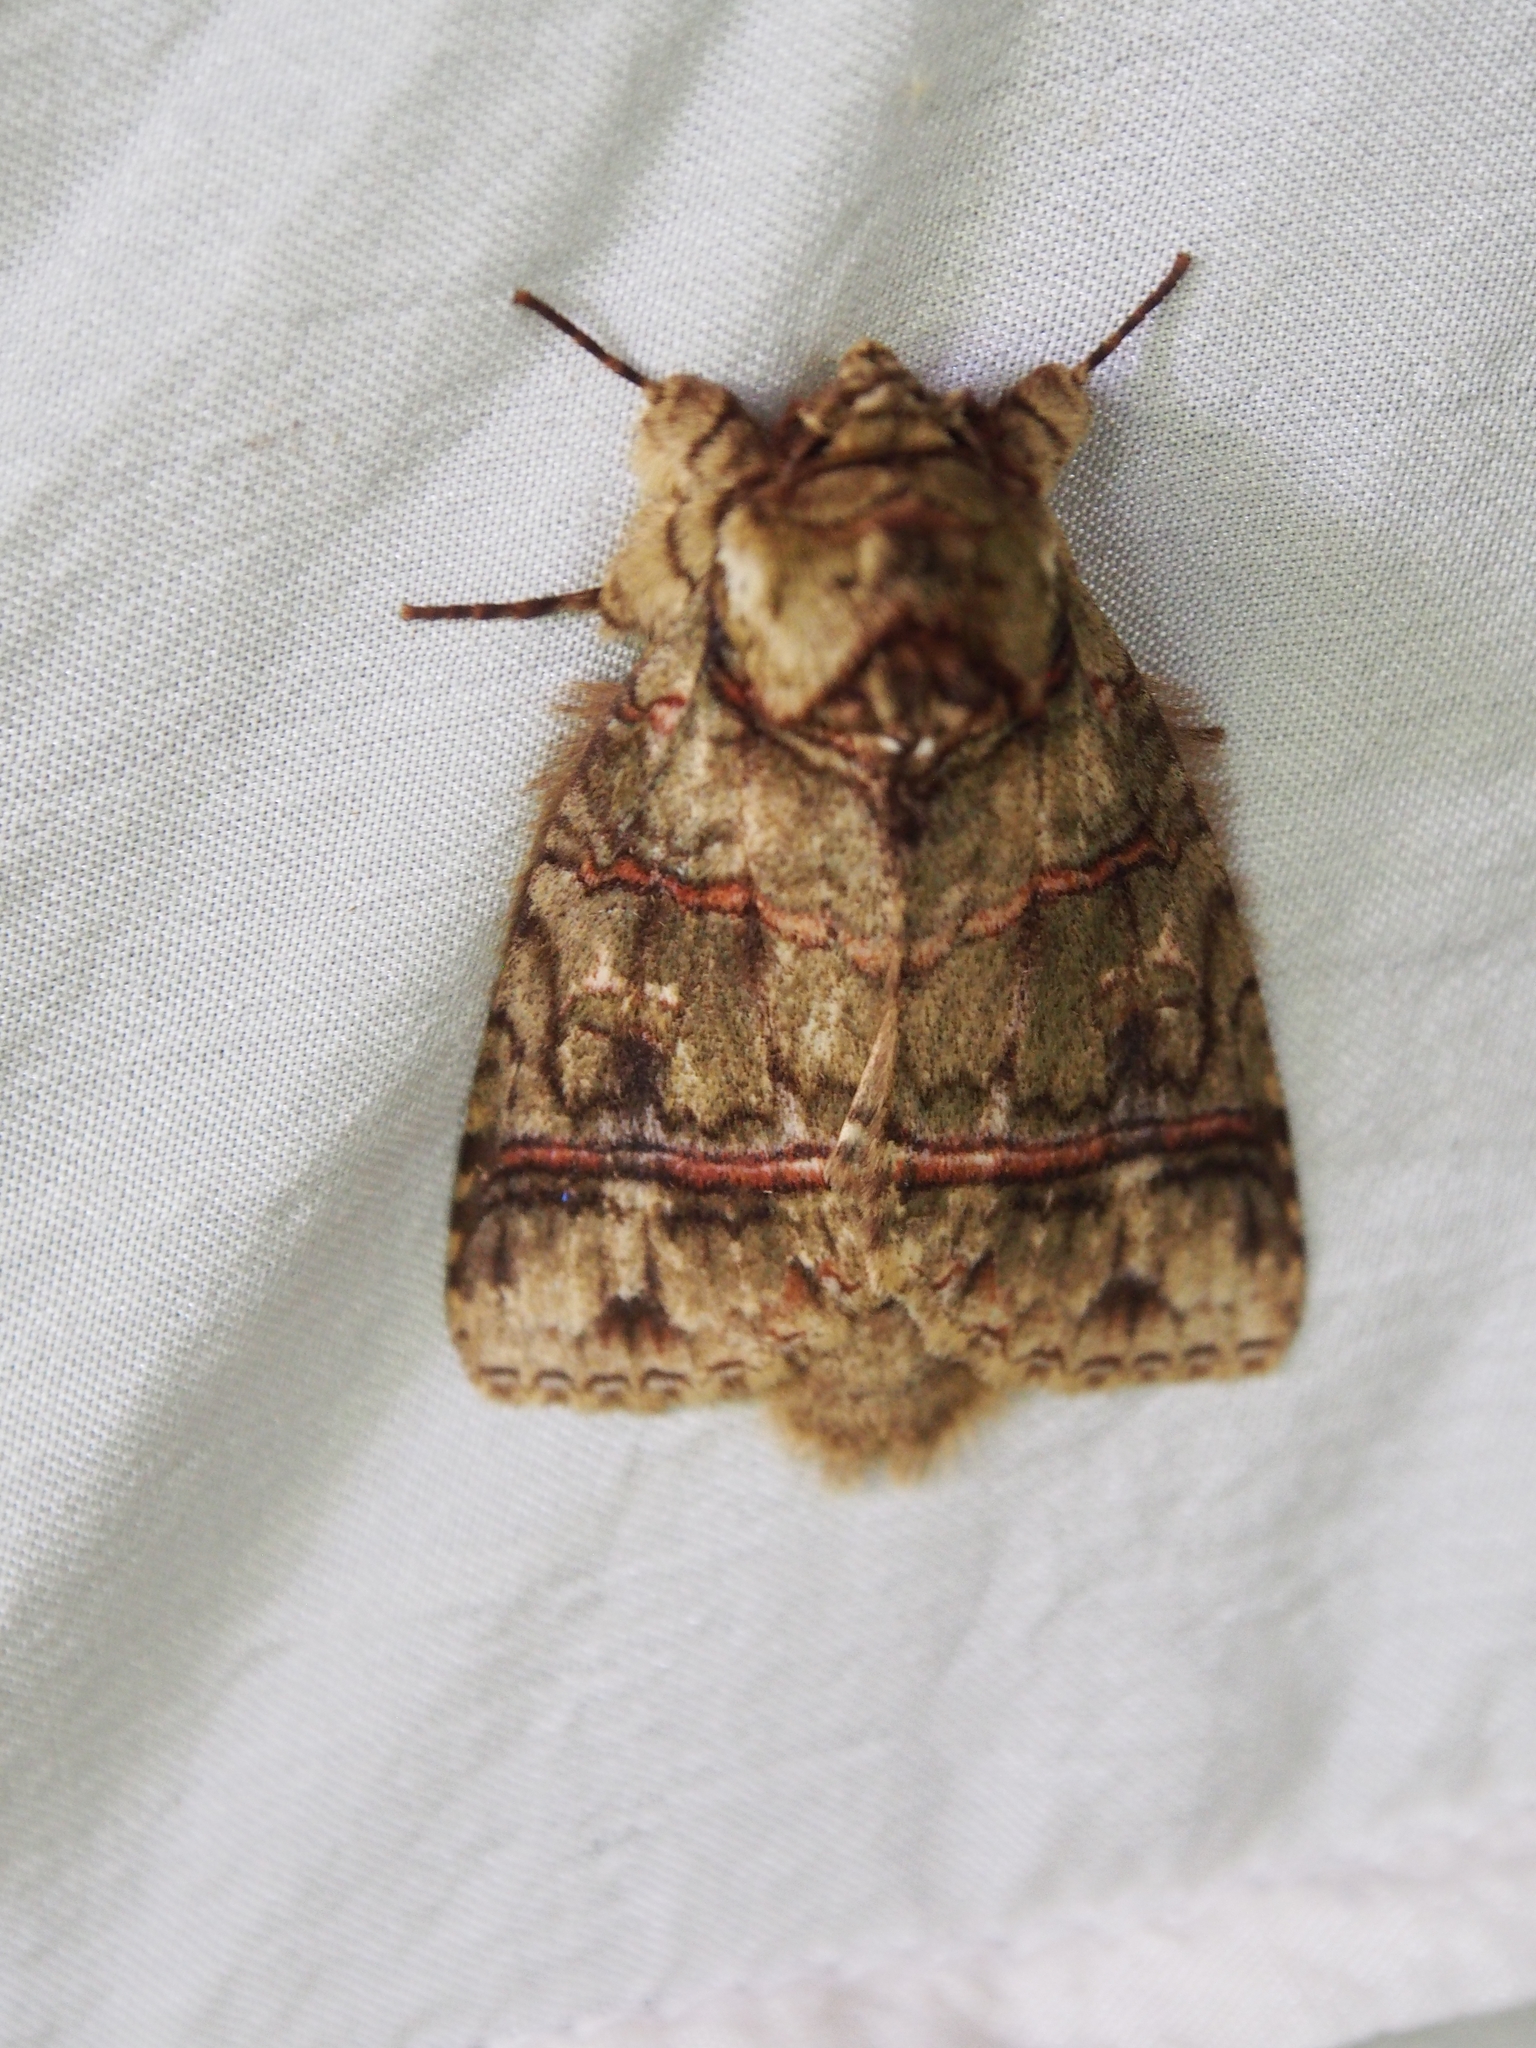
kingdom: Animalia
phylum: Arthropoda
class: Insecta
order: Lepidoptera
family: Notodontidae
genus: Eragisa
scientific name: Eragisa barnesi
